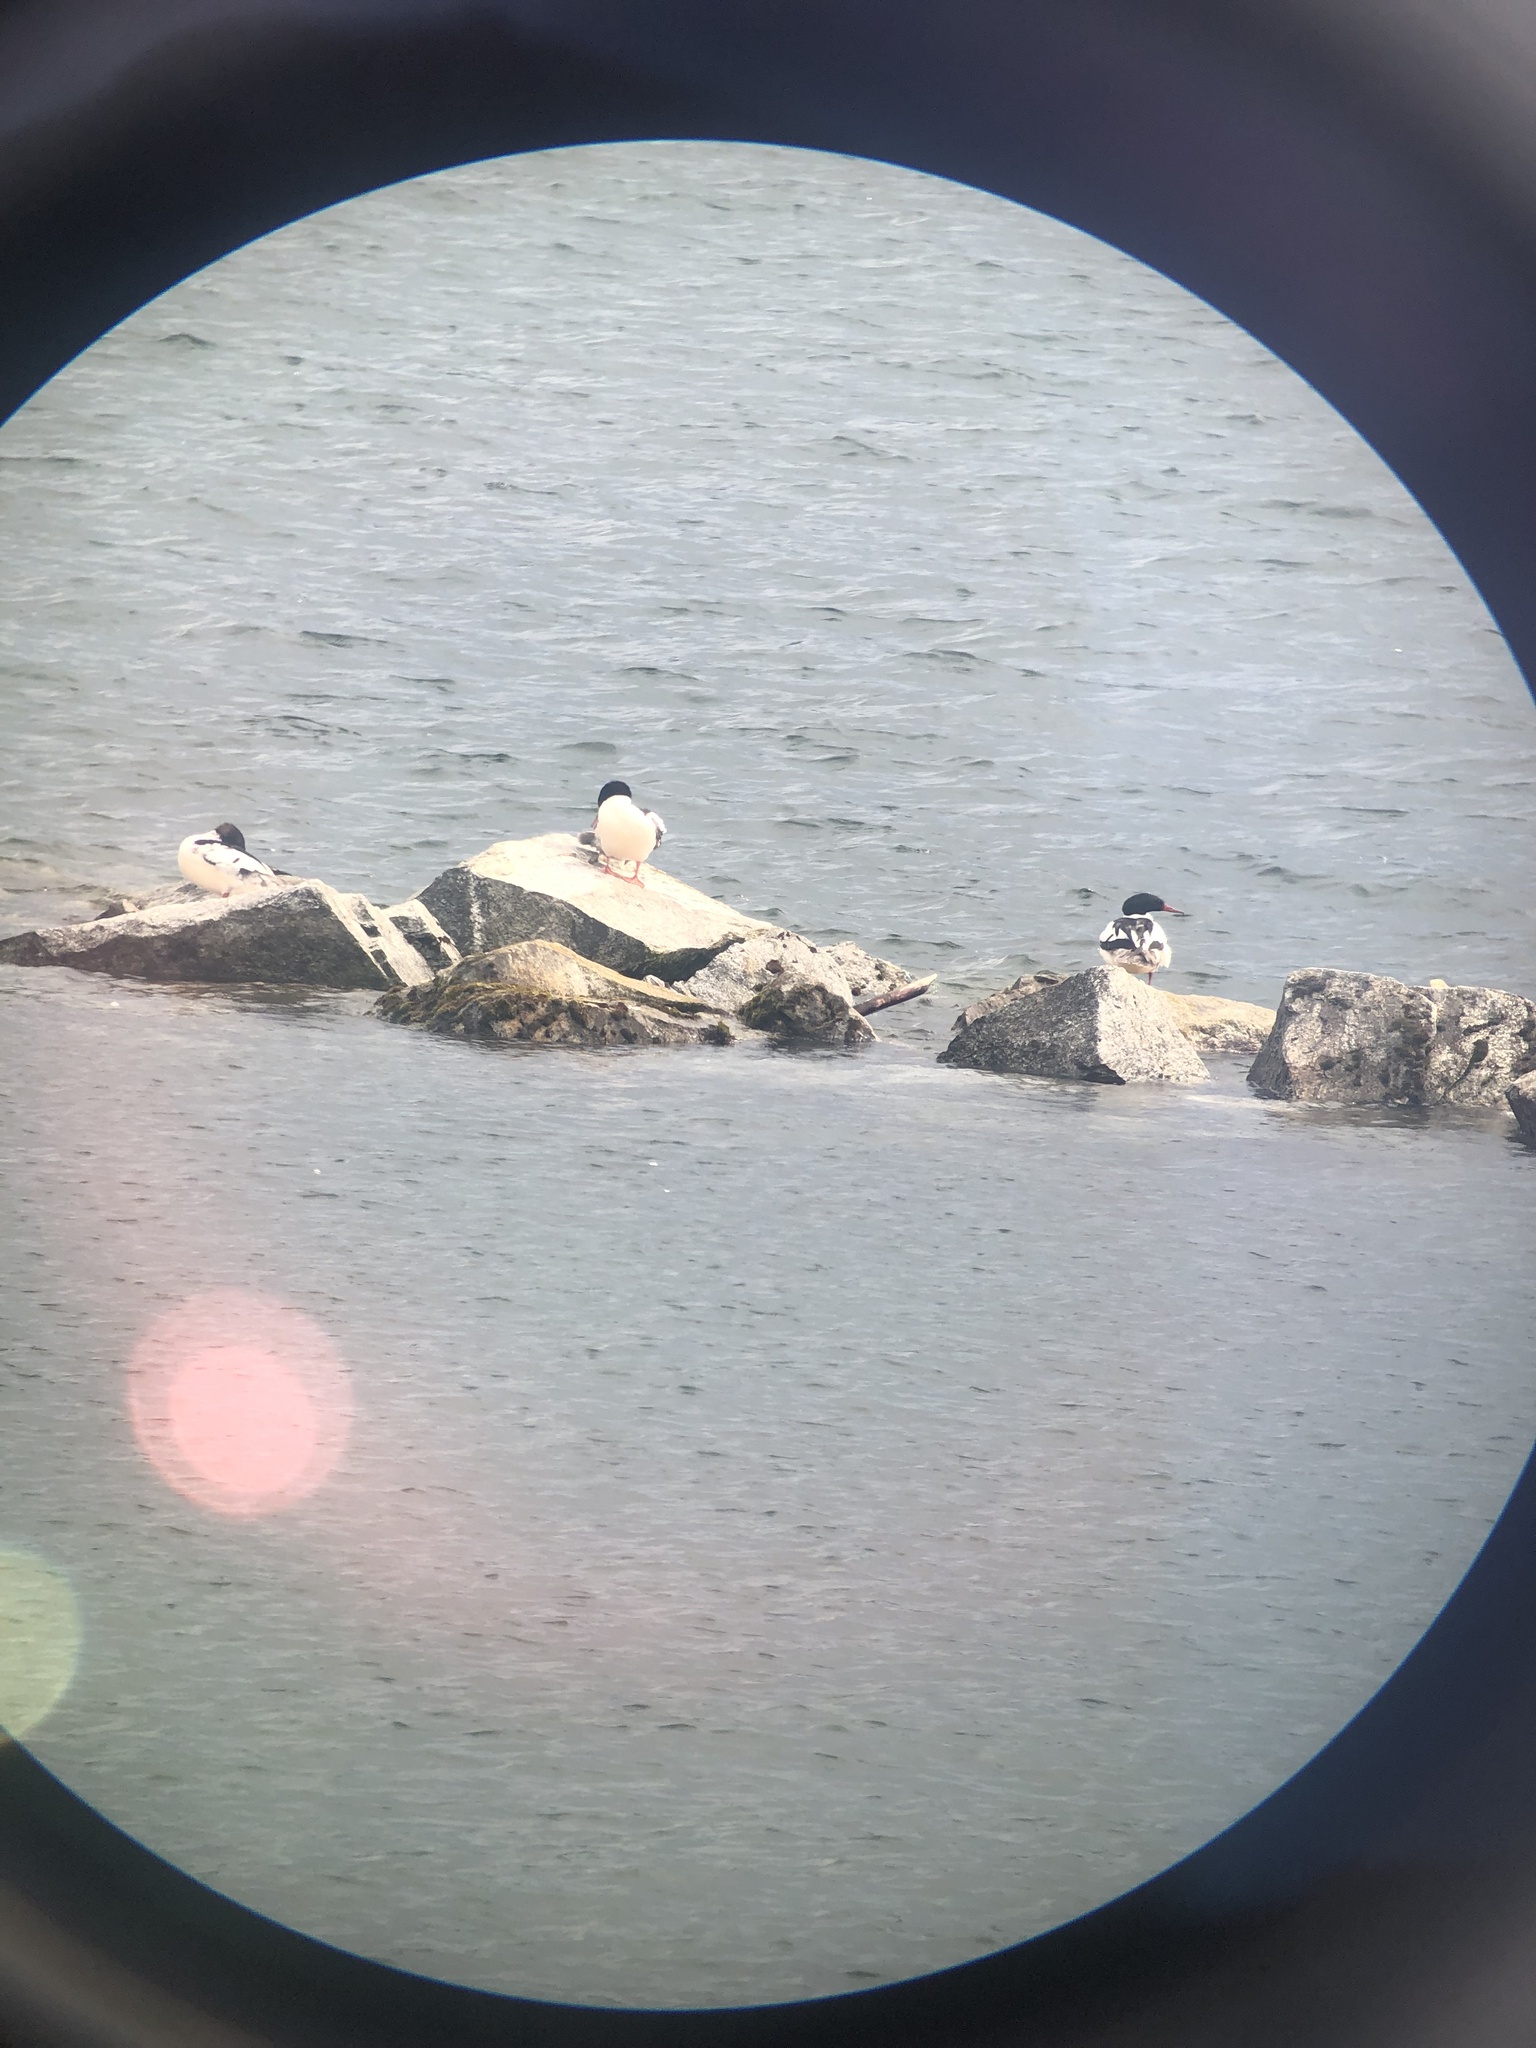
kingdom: Animalia
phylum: Chordata
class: Aves
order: Anseriformes
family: Anatidae
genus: Mergus
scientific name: Mergus merganser
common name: Common merganser
